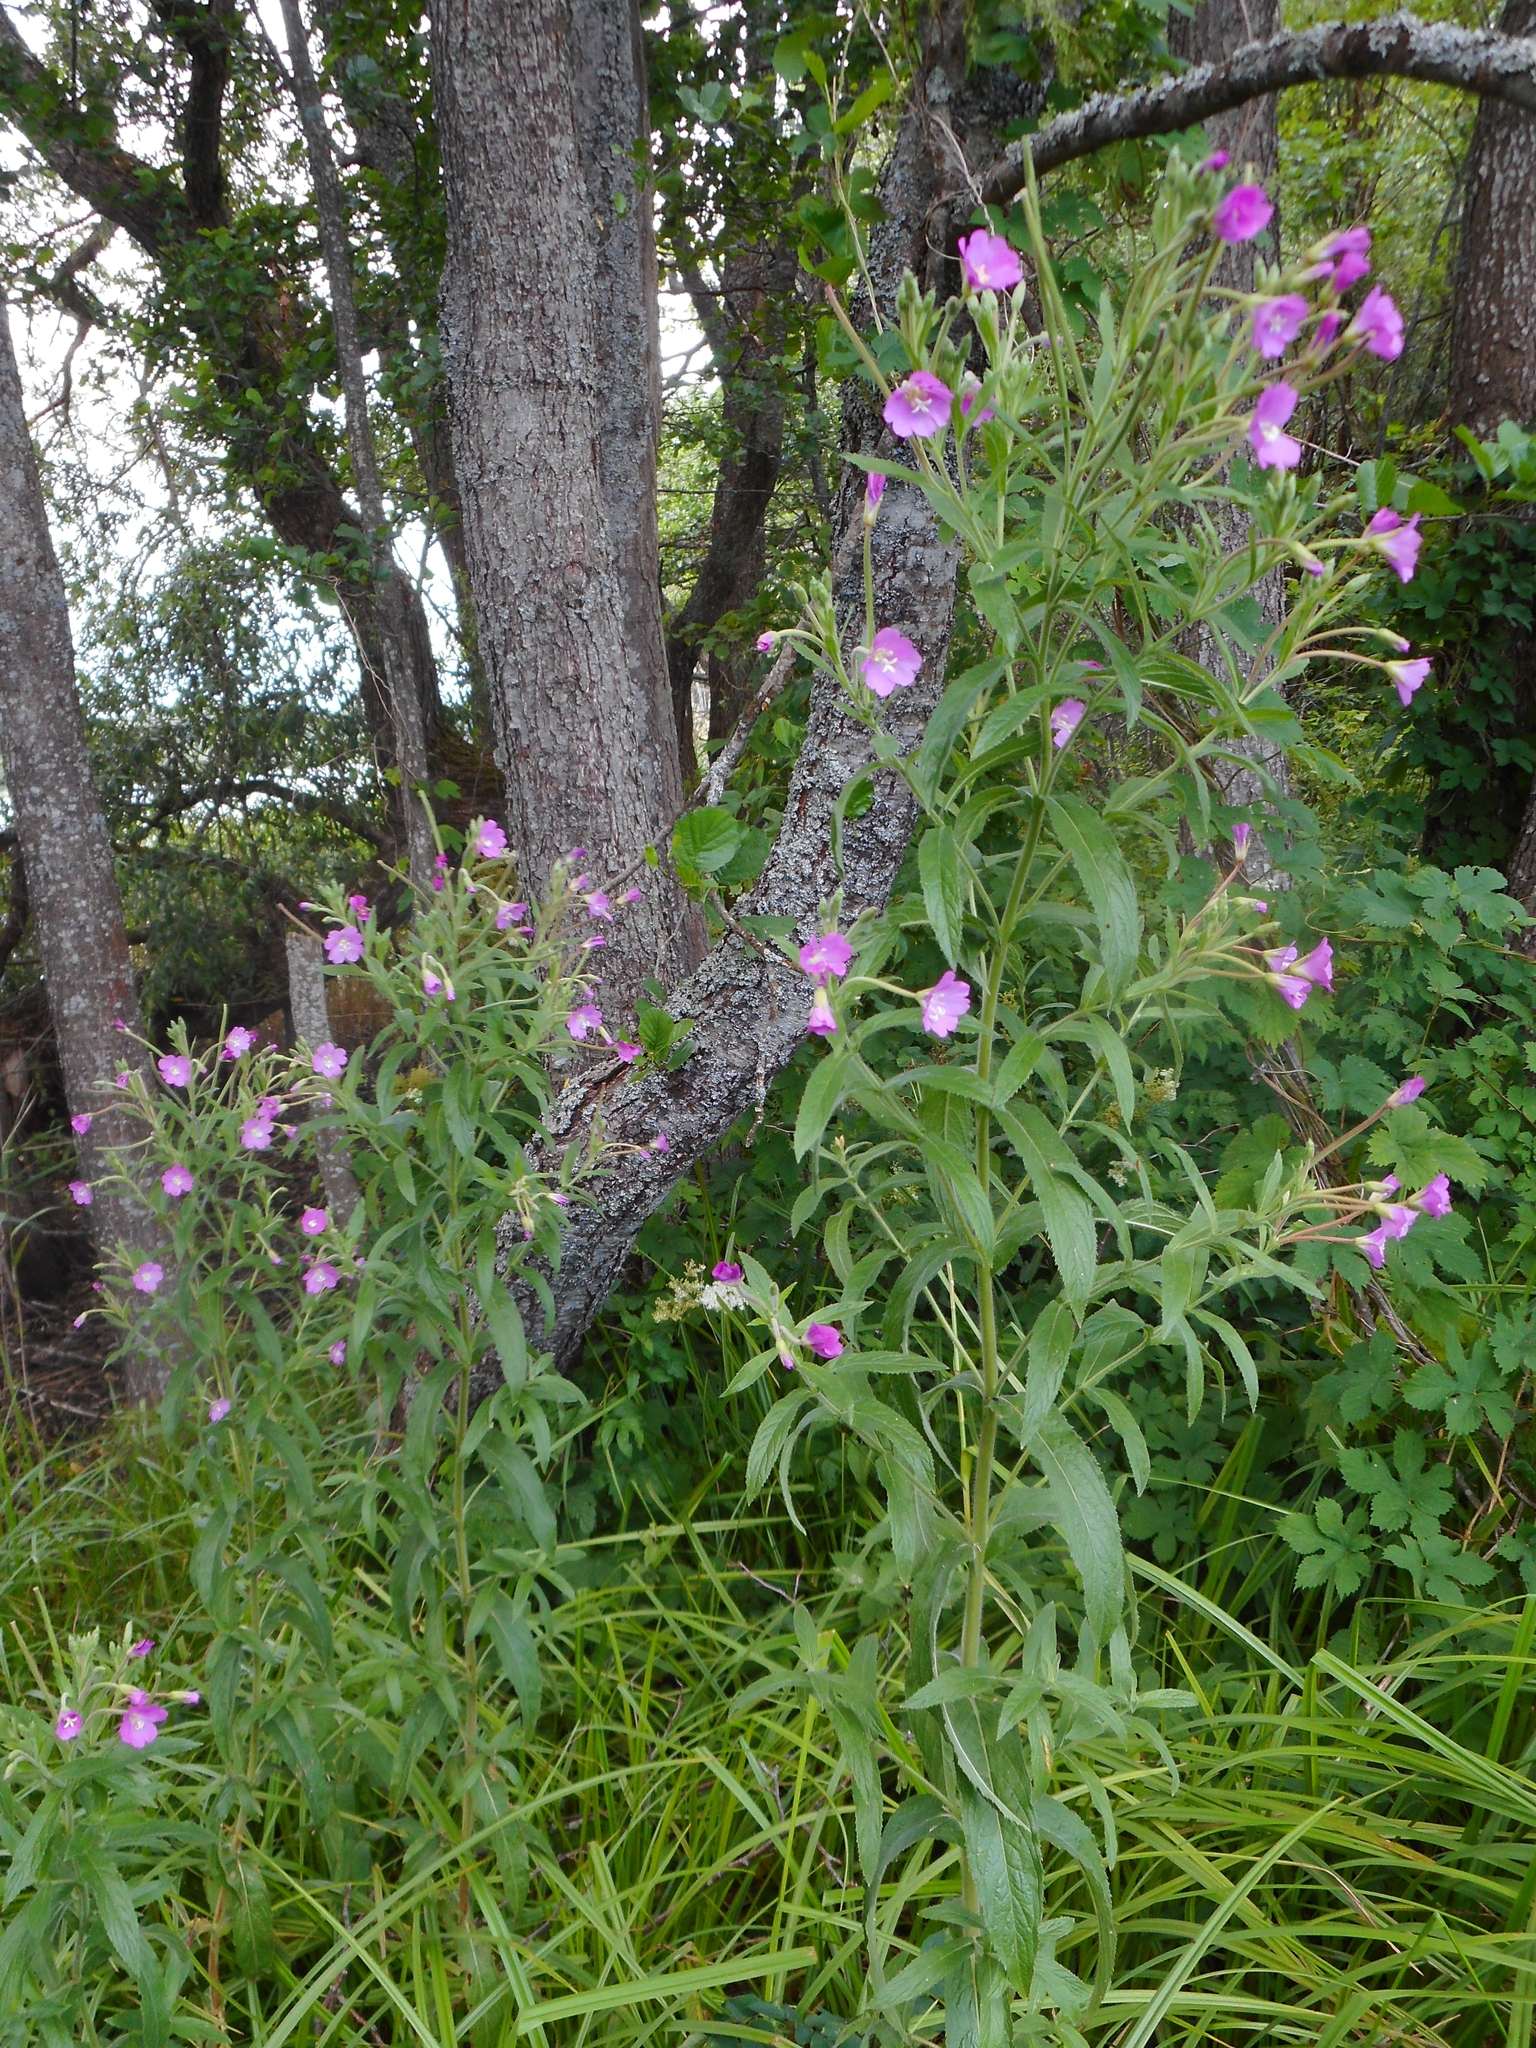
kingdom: Plantae
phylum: Tracheophyta
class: Magnoliopsida
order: Myrtales
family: Onagraceae
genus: Epilobium
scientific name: Epilobium hirsutum
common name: Great willowherb
